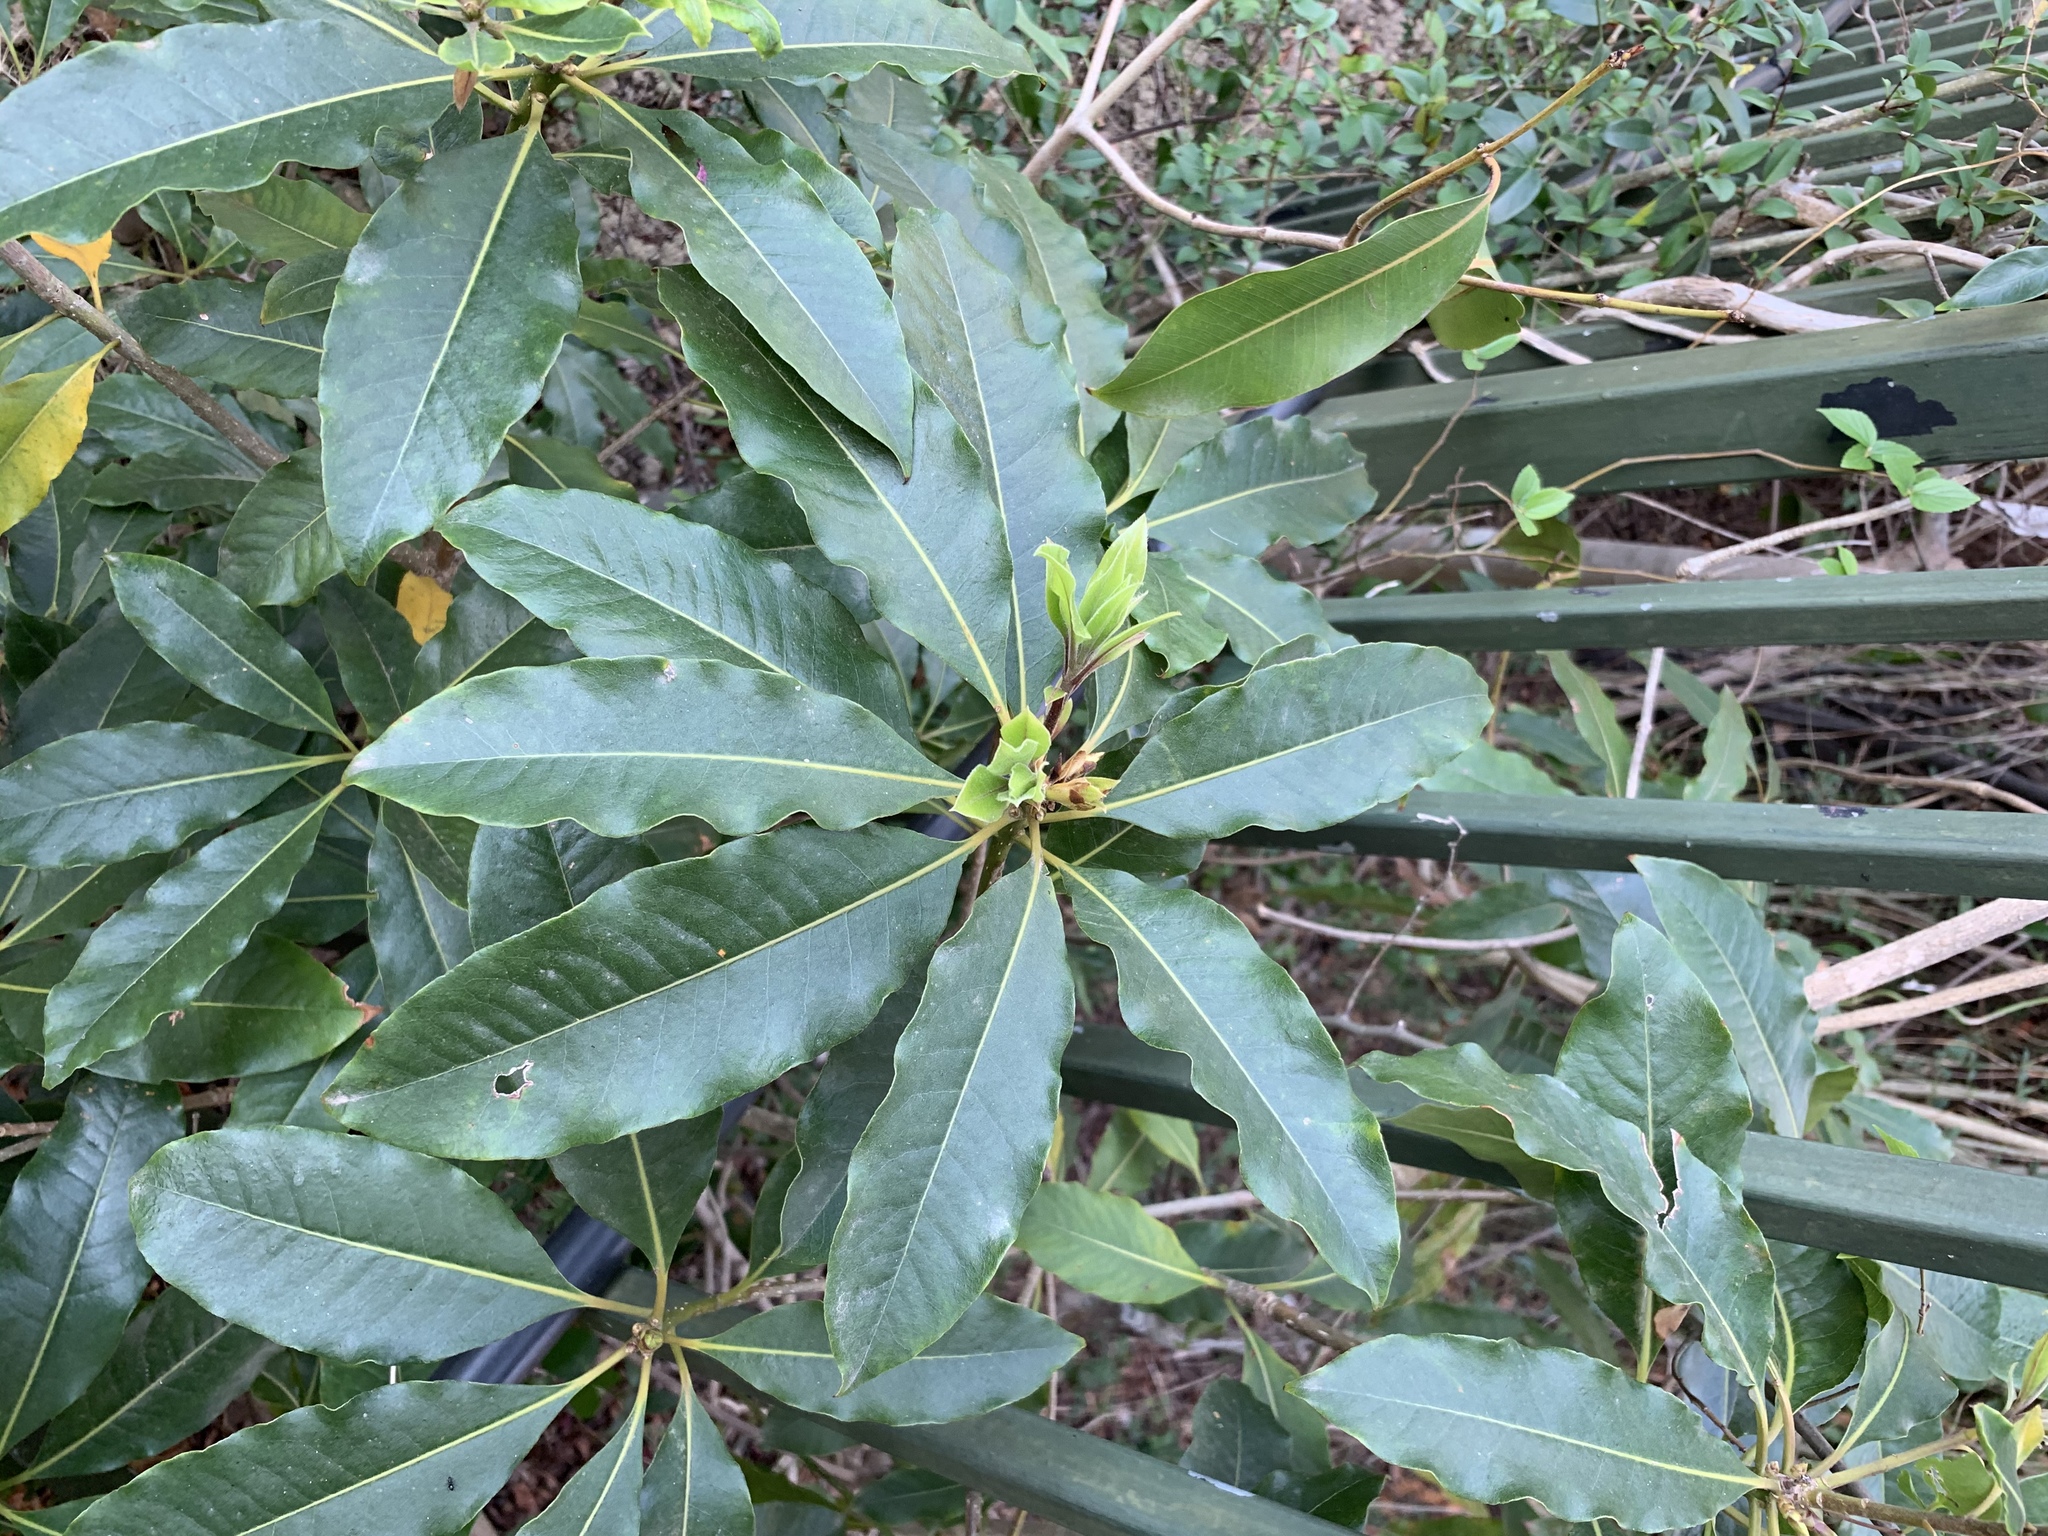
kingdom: Plantae
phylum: Tracheophyta
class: Magnoliopsida
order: Apiales
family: Pittosporaceae
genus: Pittosporum
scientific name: Pittosporum undulatum
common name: Australian cheesewood
